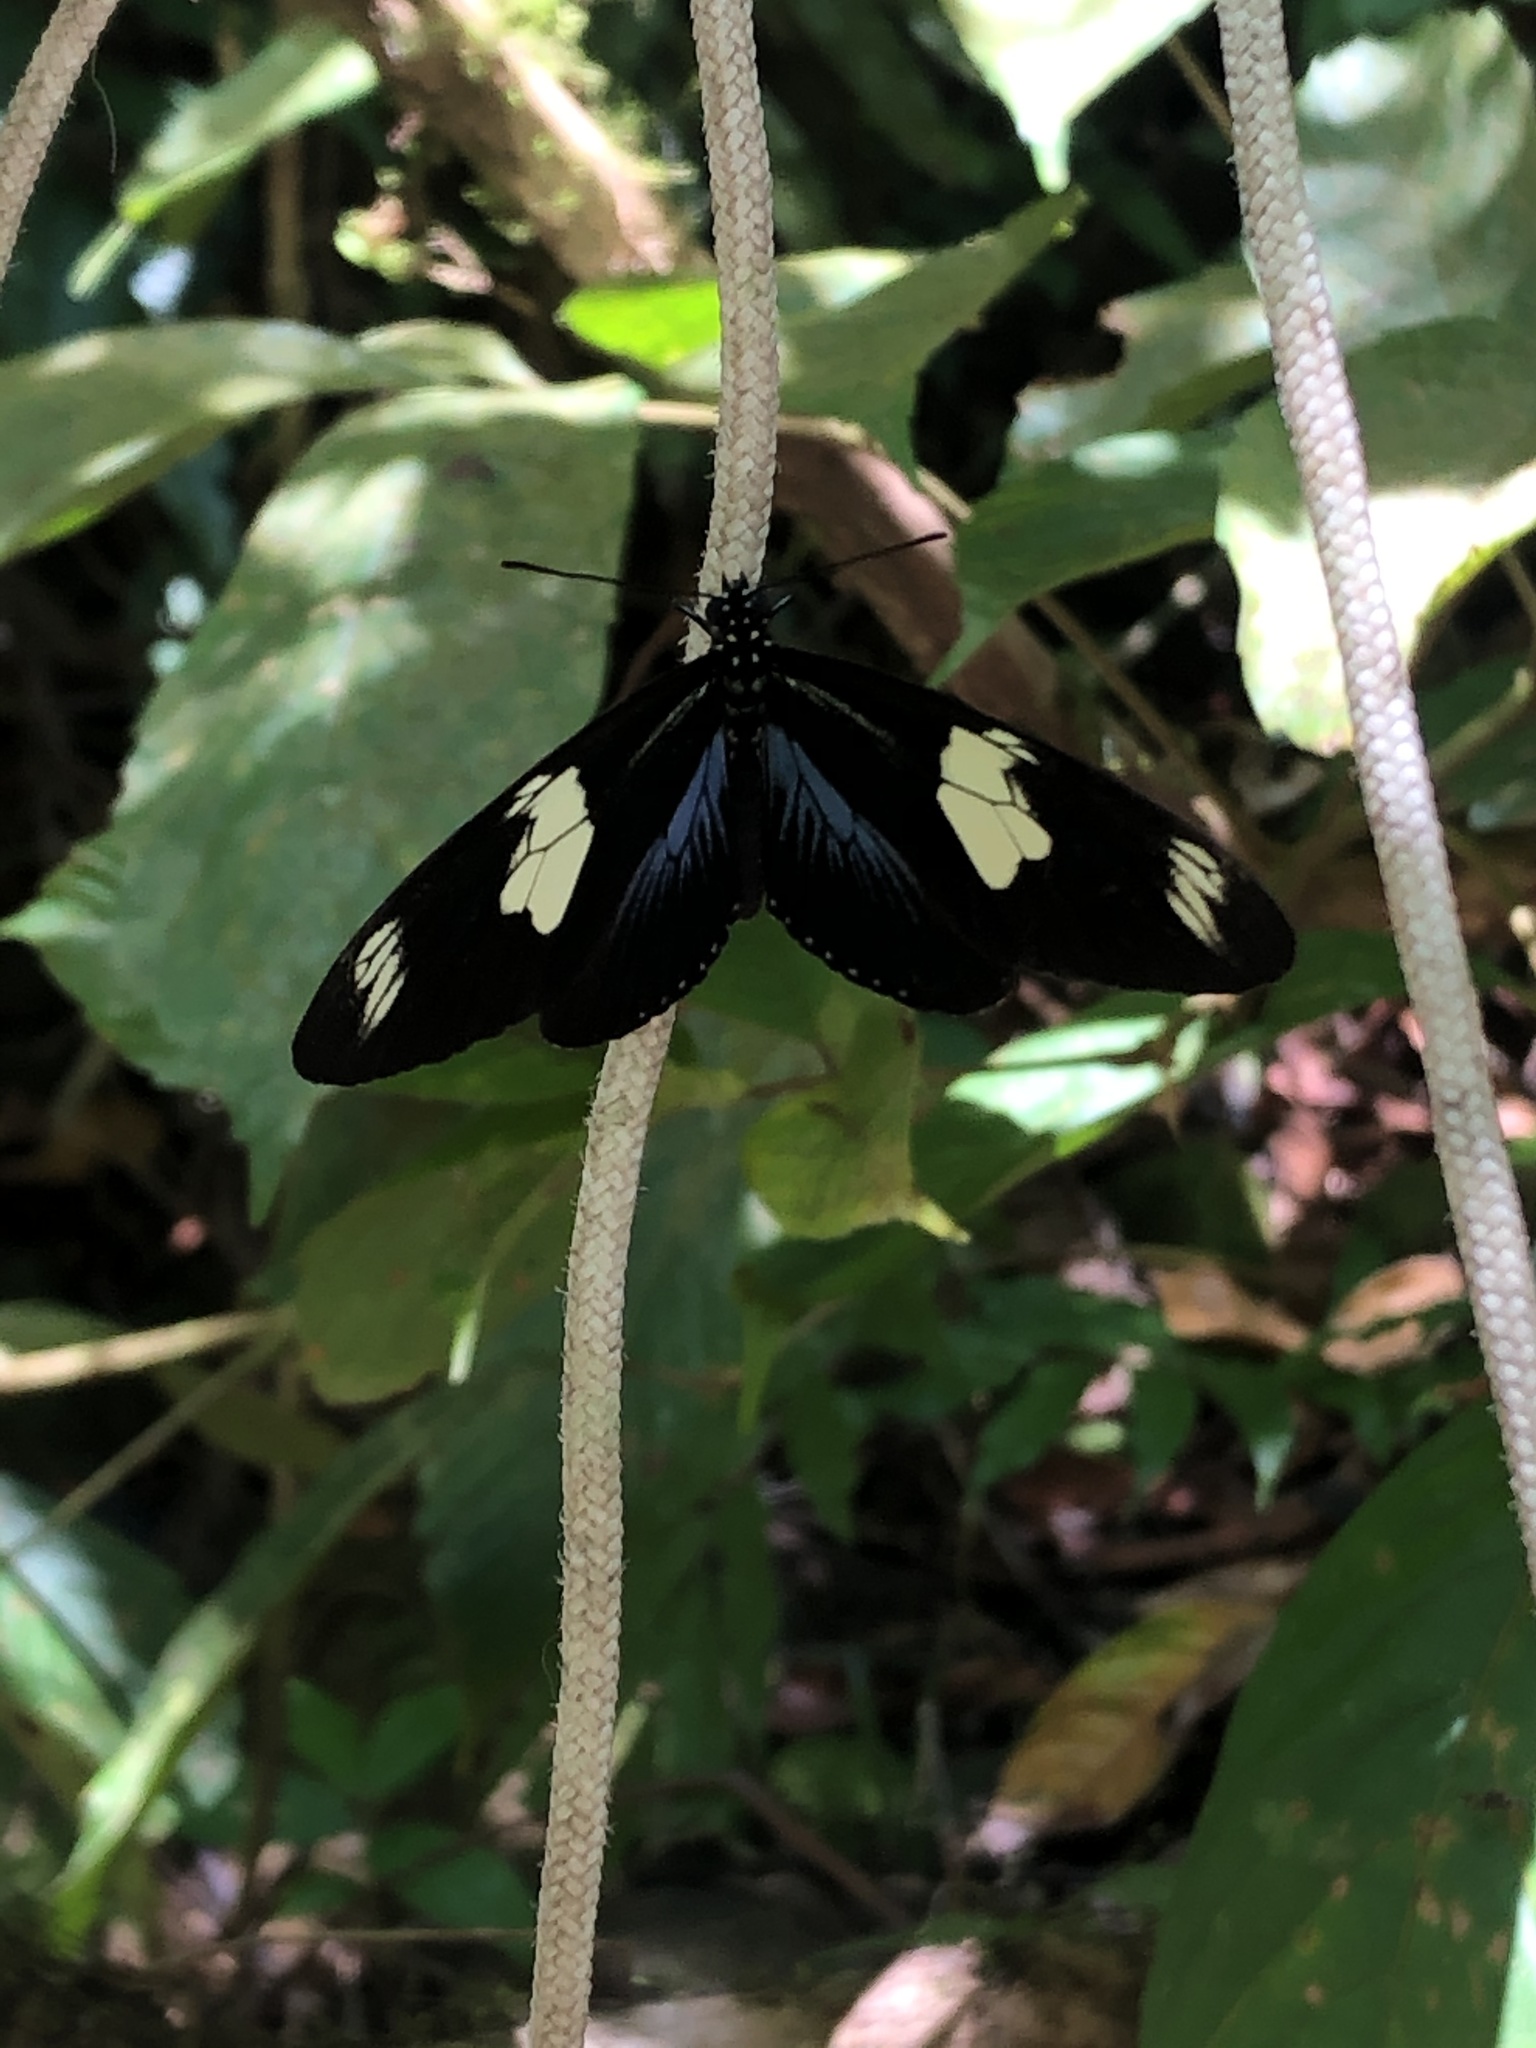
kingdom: Animalia
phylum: Arthropoda
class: Insecta
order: Lepidoptera
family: Nymphalidae
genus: Heliconius
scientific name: Heliconius doris
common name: Doris longwing
